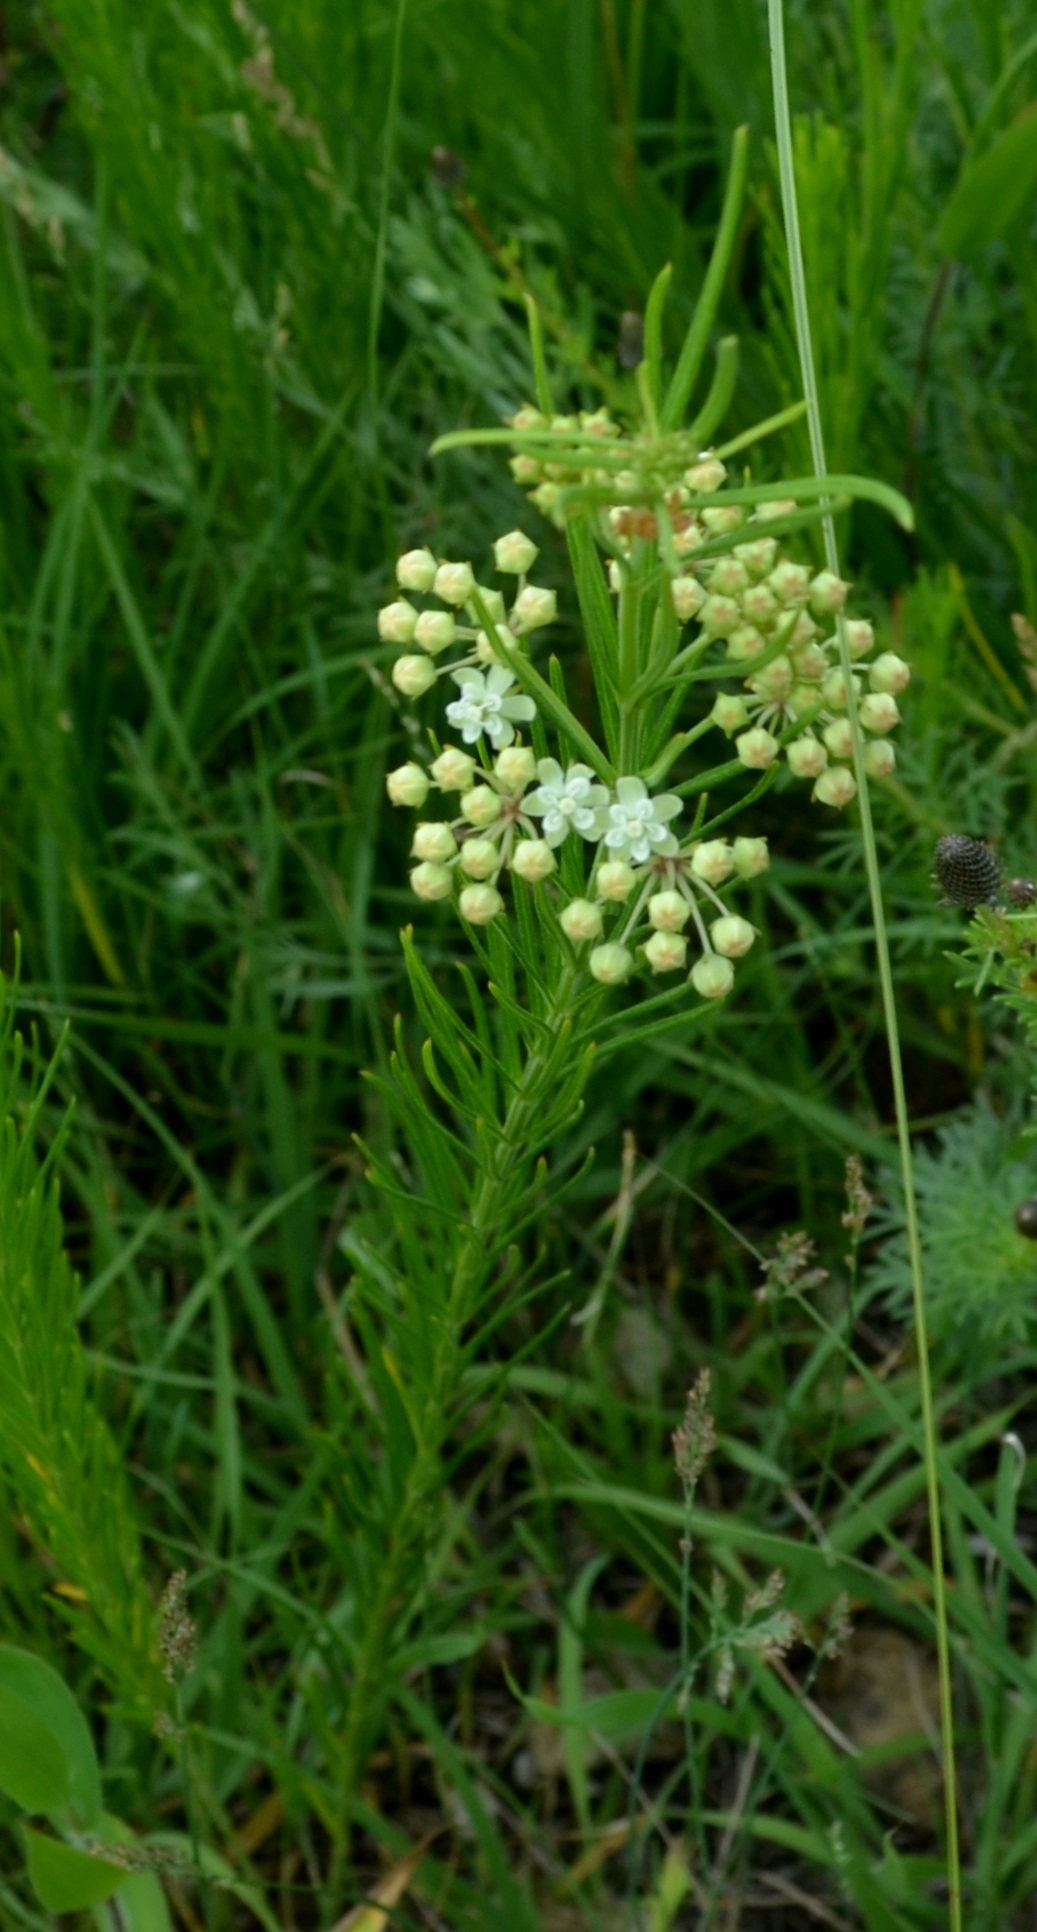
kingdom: Plantae
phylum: Tracheophyta
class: Magnoliopsida
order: Gentianales
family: Apocynaceae
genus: Asclepias
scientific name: Asclepias verticillata
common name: Eastern whorled milkweed
